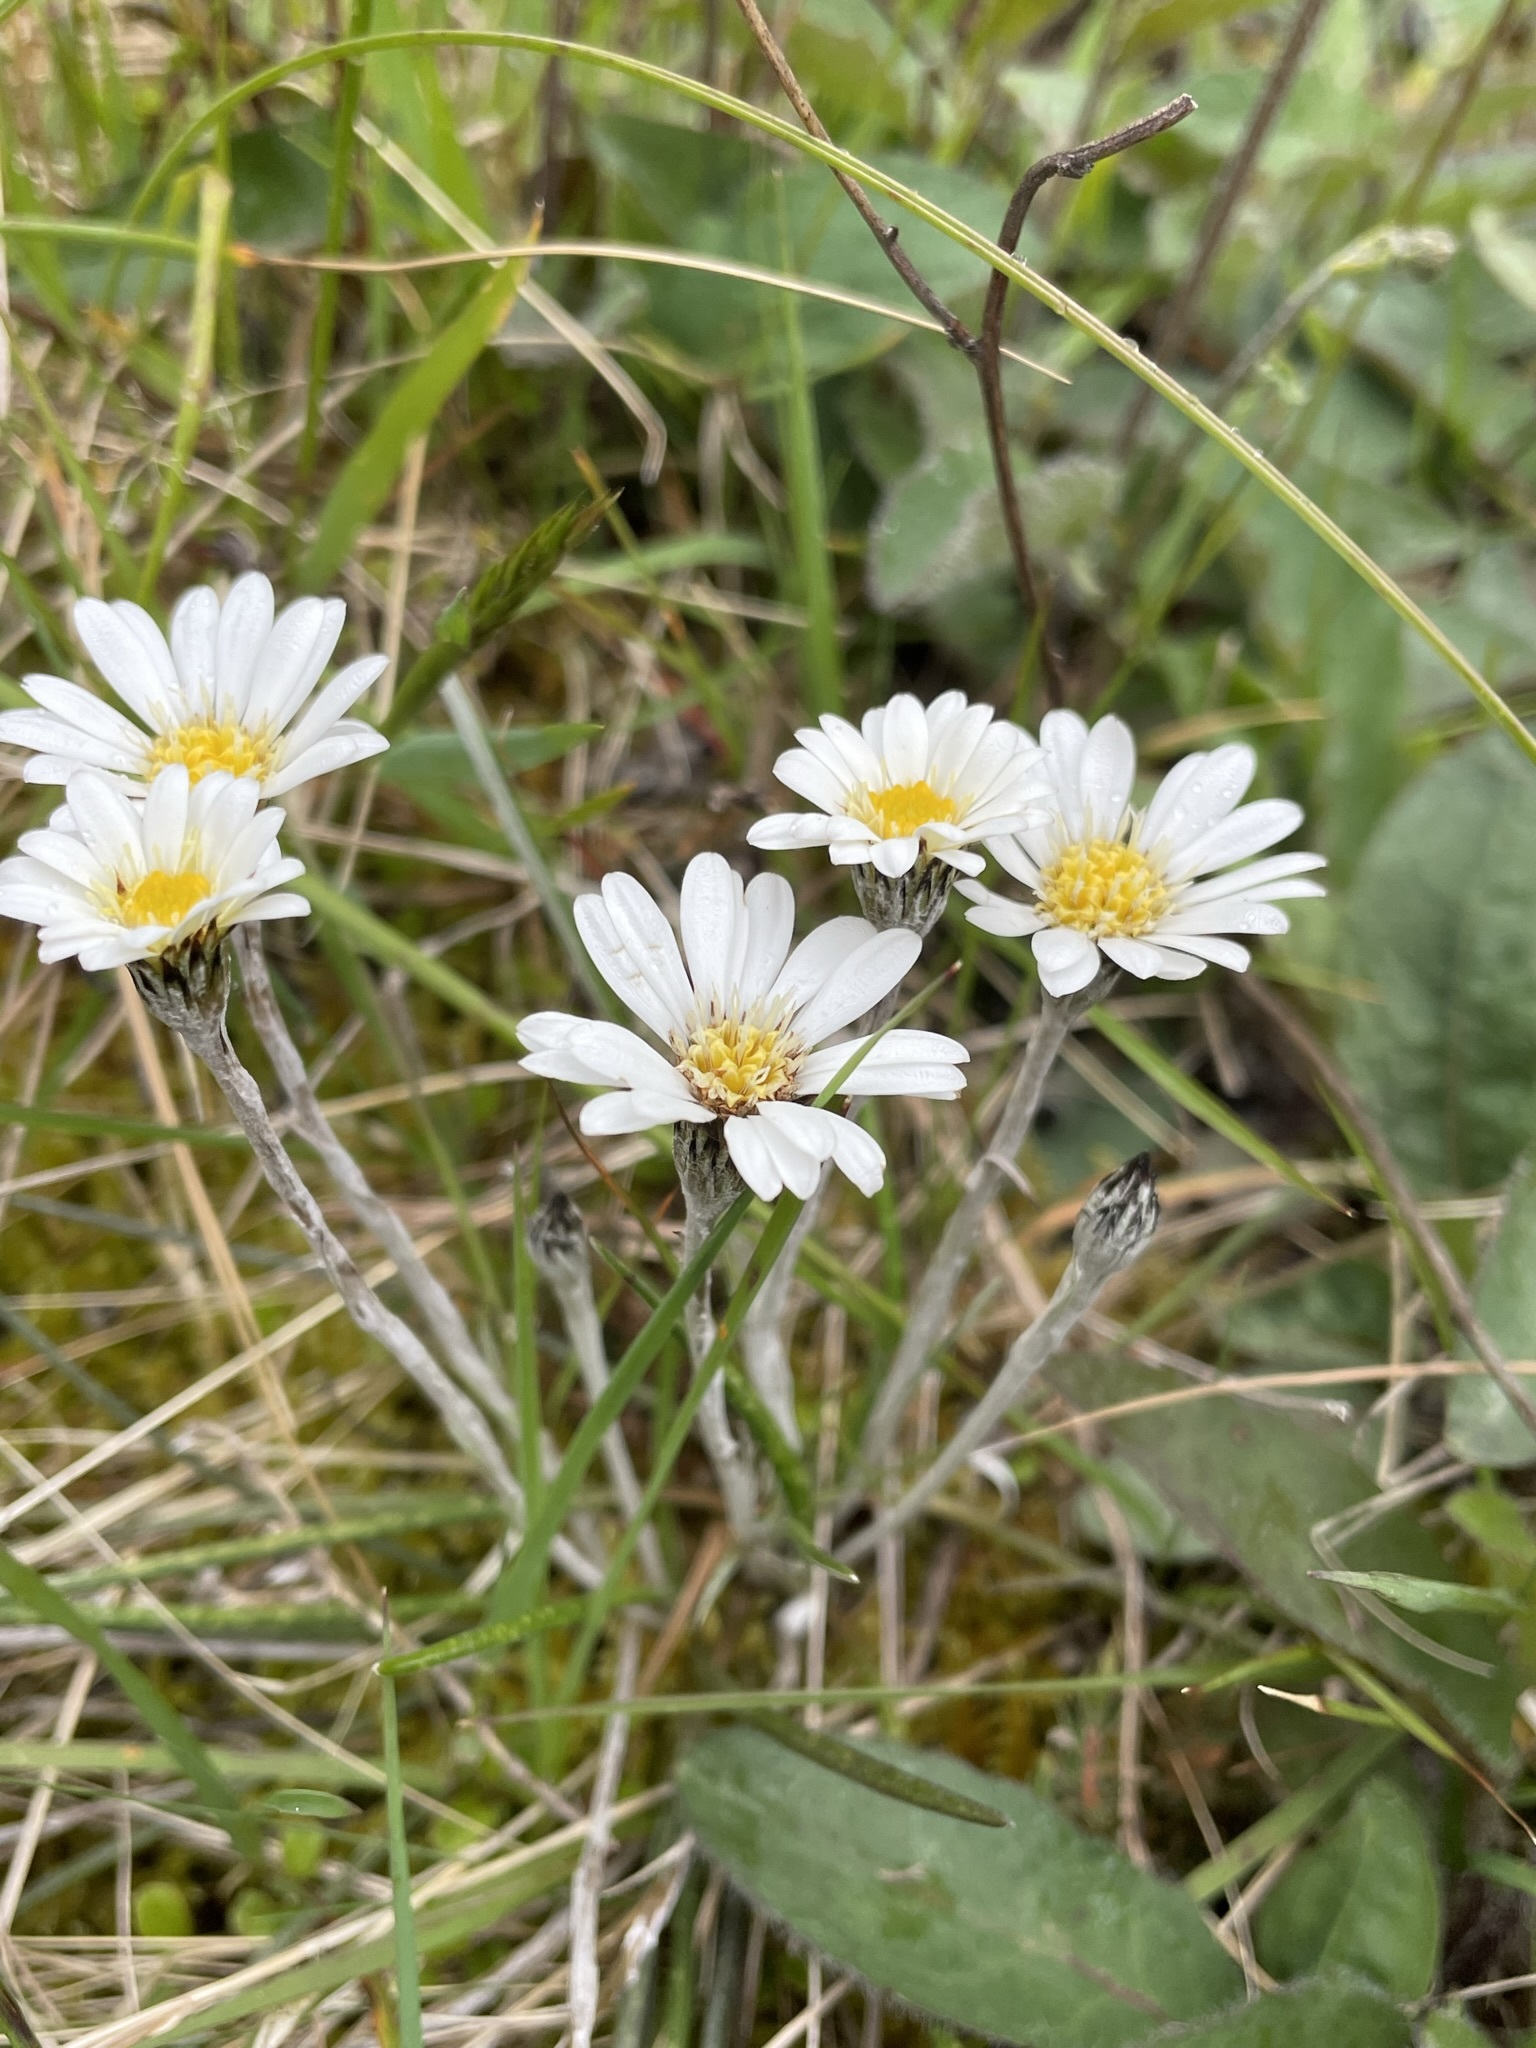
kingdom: Plantae
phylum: Tracheophyta
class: Magnoliopsida
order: Asterales
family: Asteraceae
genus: Celmisia
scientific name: Celmisia gracilenta
